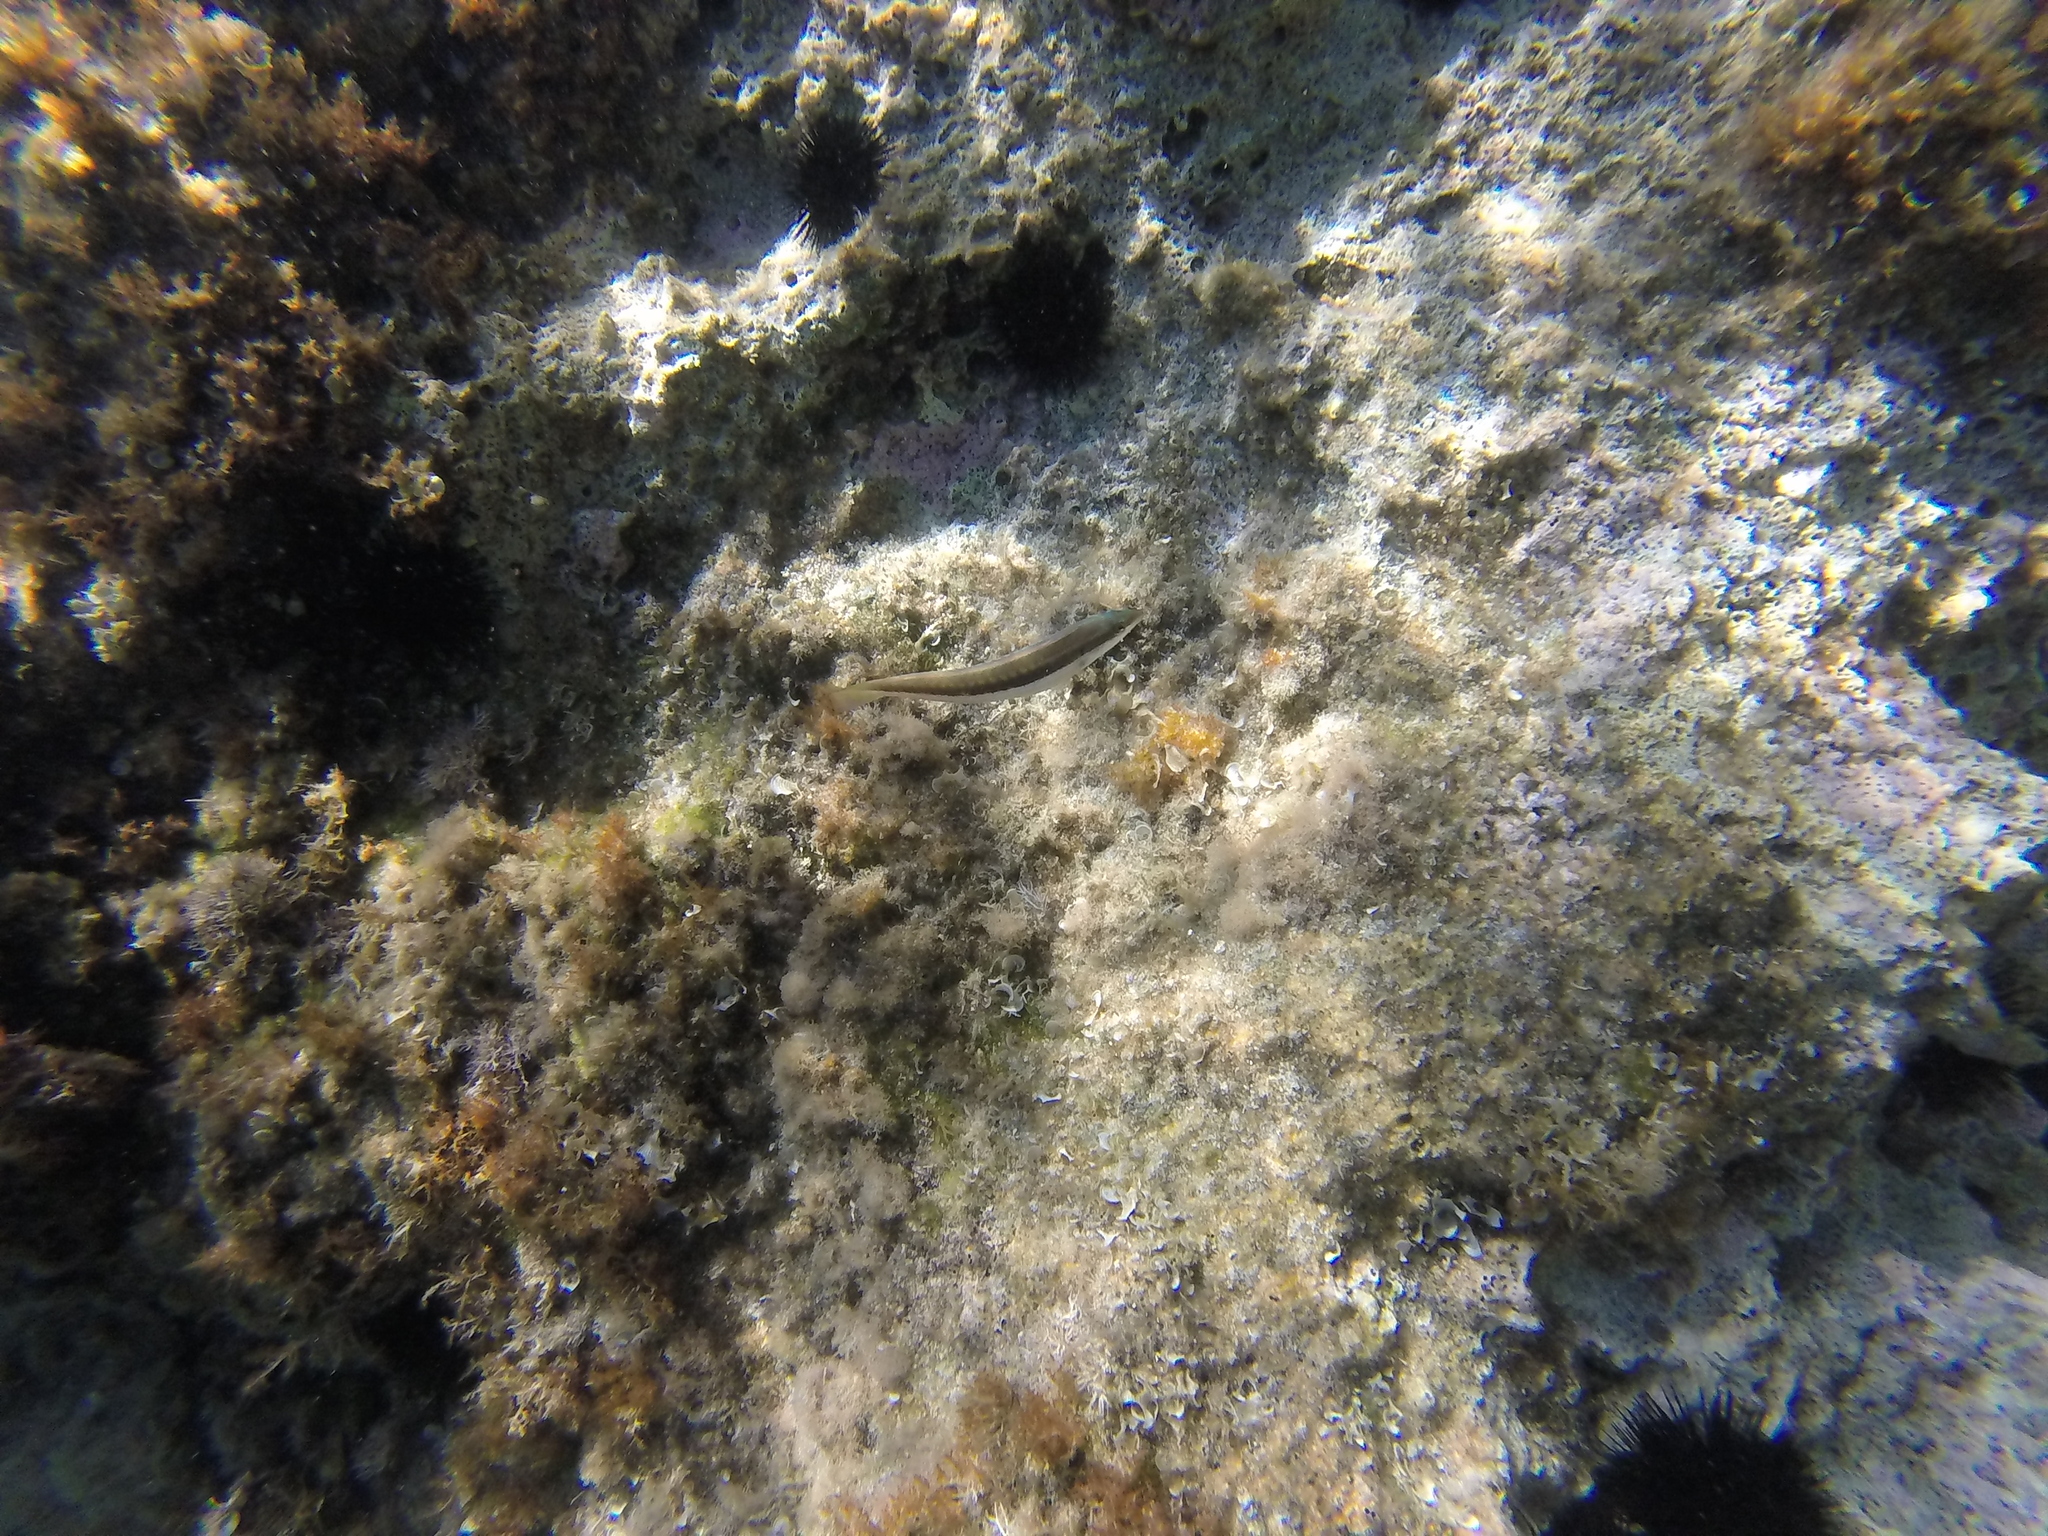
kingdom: Animalia
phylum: Chordata
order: Perciformes
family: Labridae
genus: Coris
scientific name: Coris julis
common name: Rainbow wrasse
